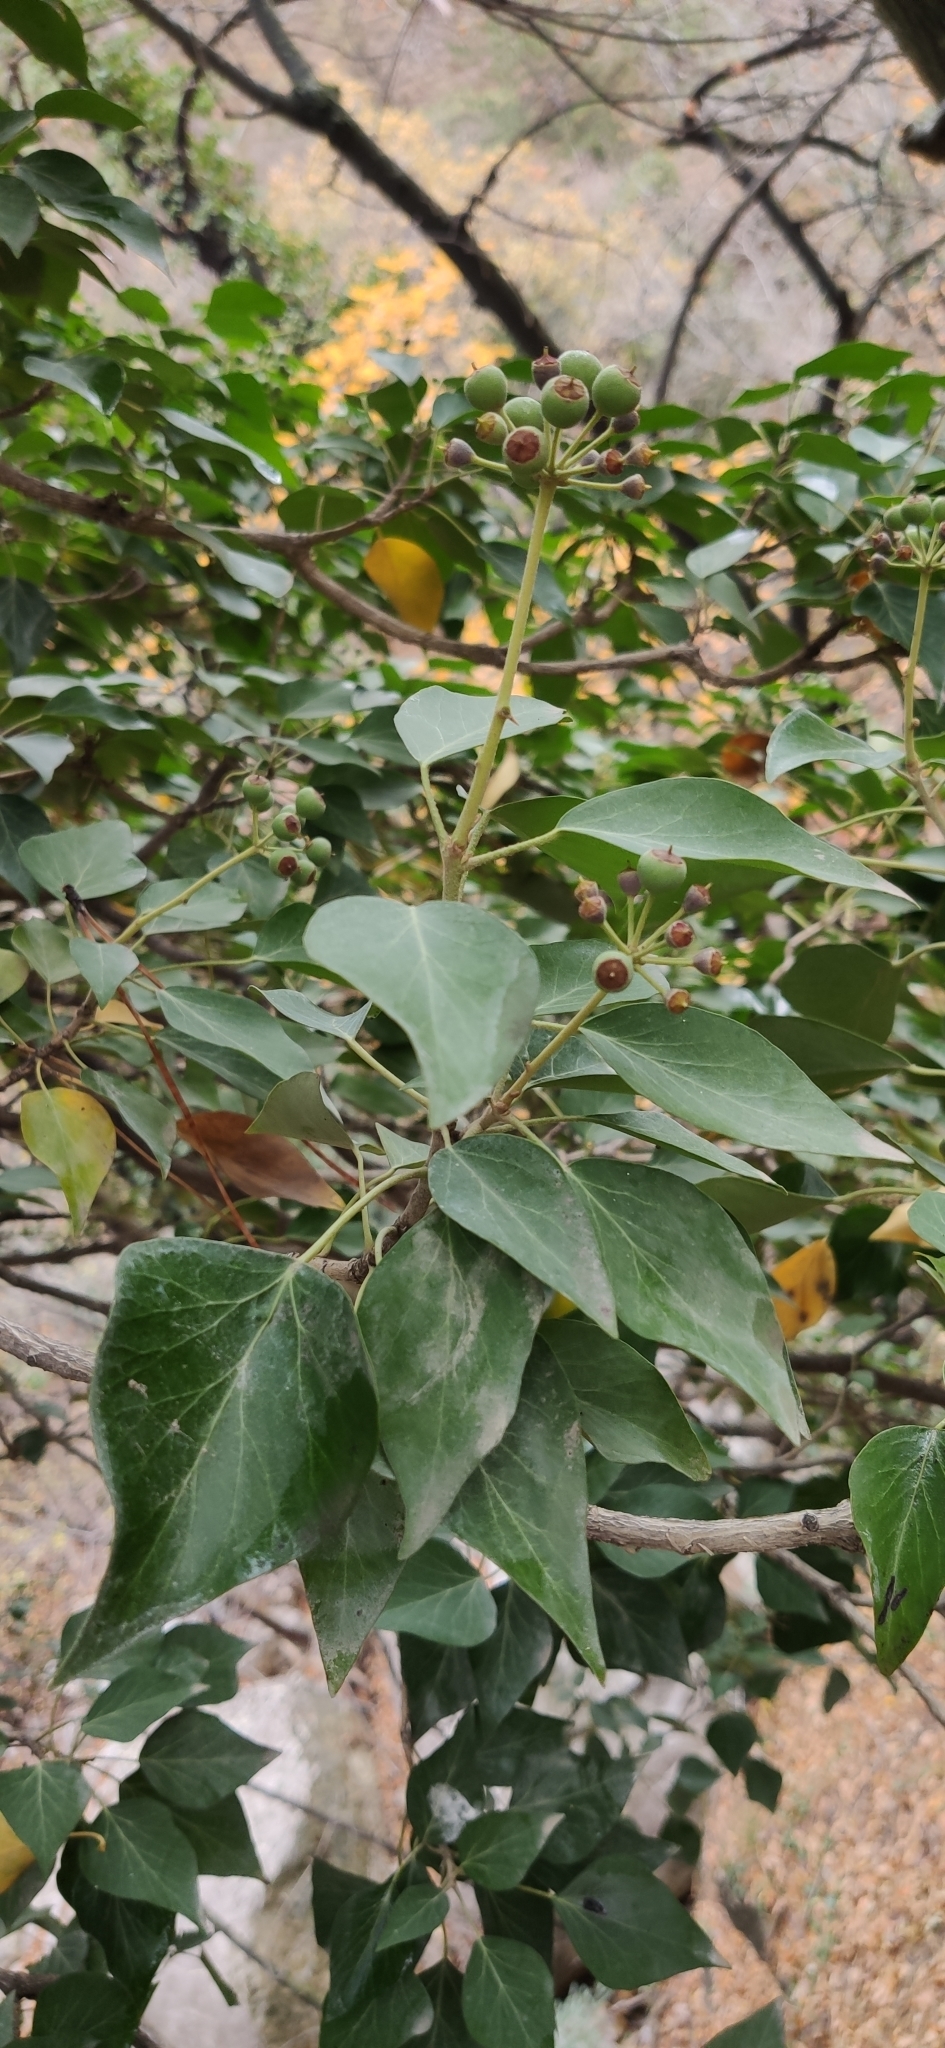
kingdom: Plantae
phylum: Tracheophyta
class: Magnoliopsida
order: Apiales
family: Araliaceae
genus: Hedera
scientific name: Hedera helix
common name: Ivy
